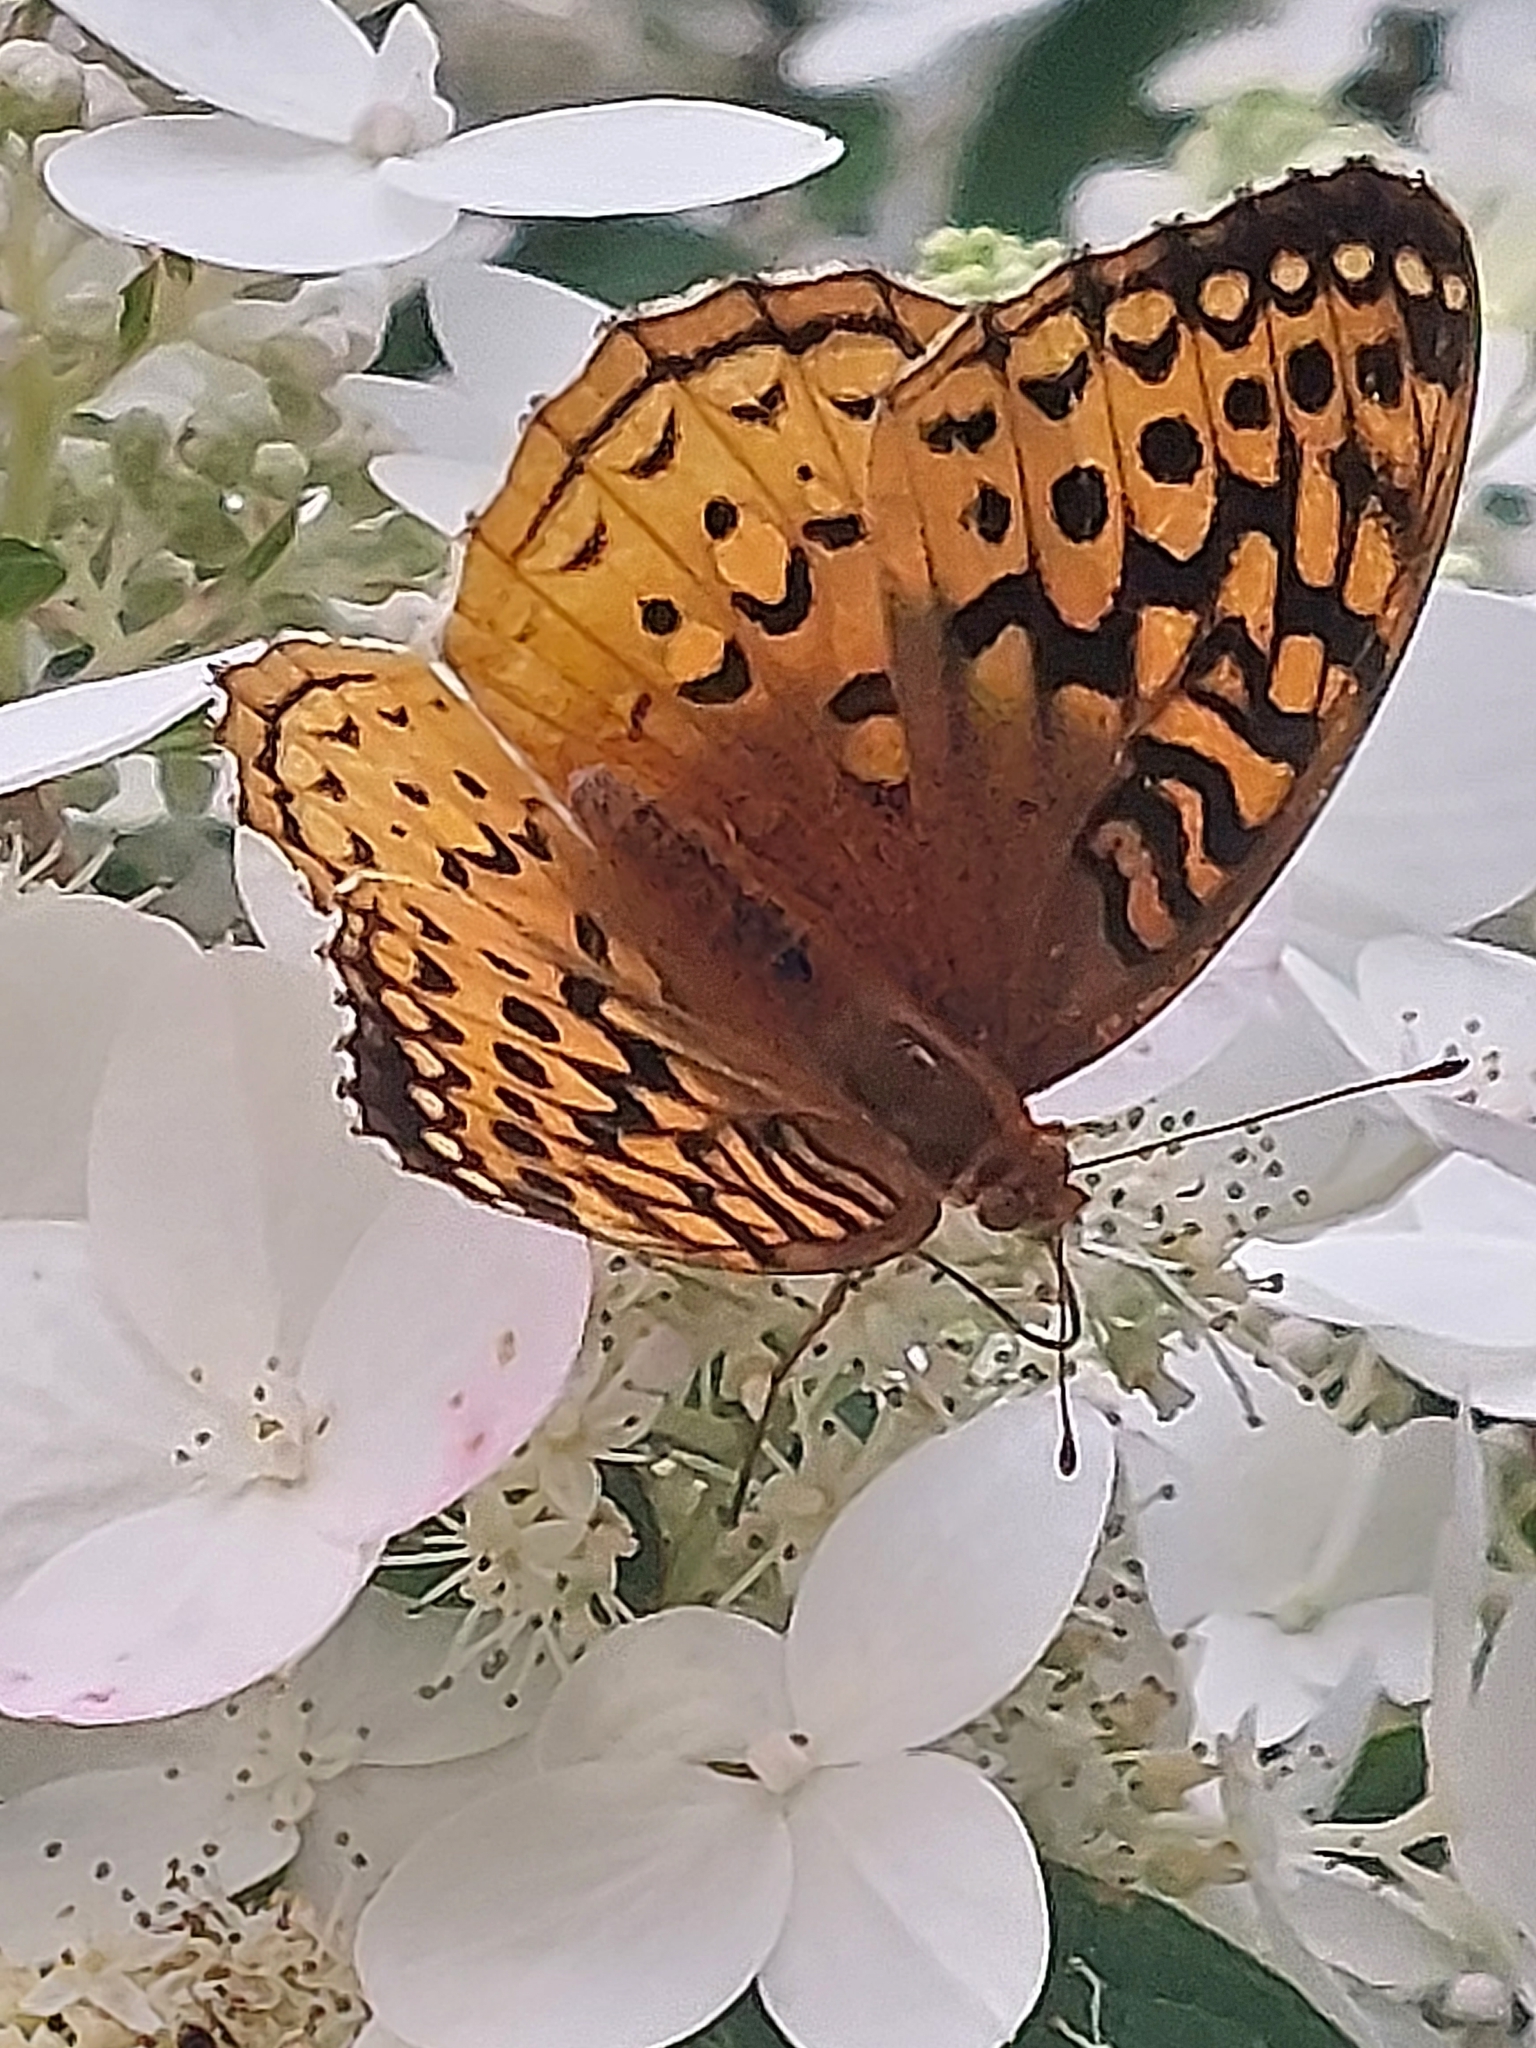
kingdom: Animalia
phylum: Arthropoda
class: Insecta
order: Lepidoptera
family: Nymphalidae
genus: Speyeria
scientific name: Speyeria cybele
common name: Great spangled fritillary
